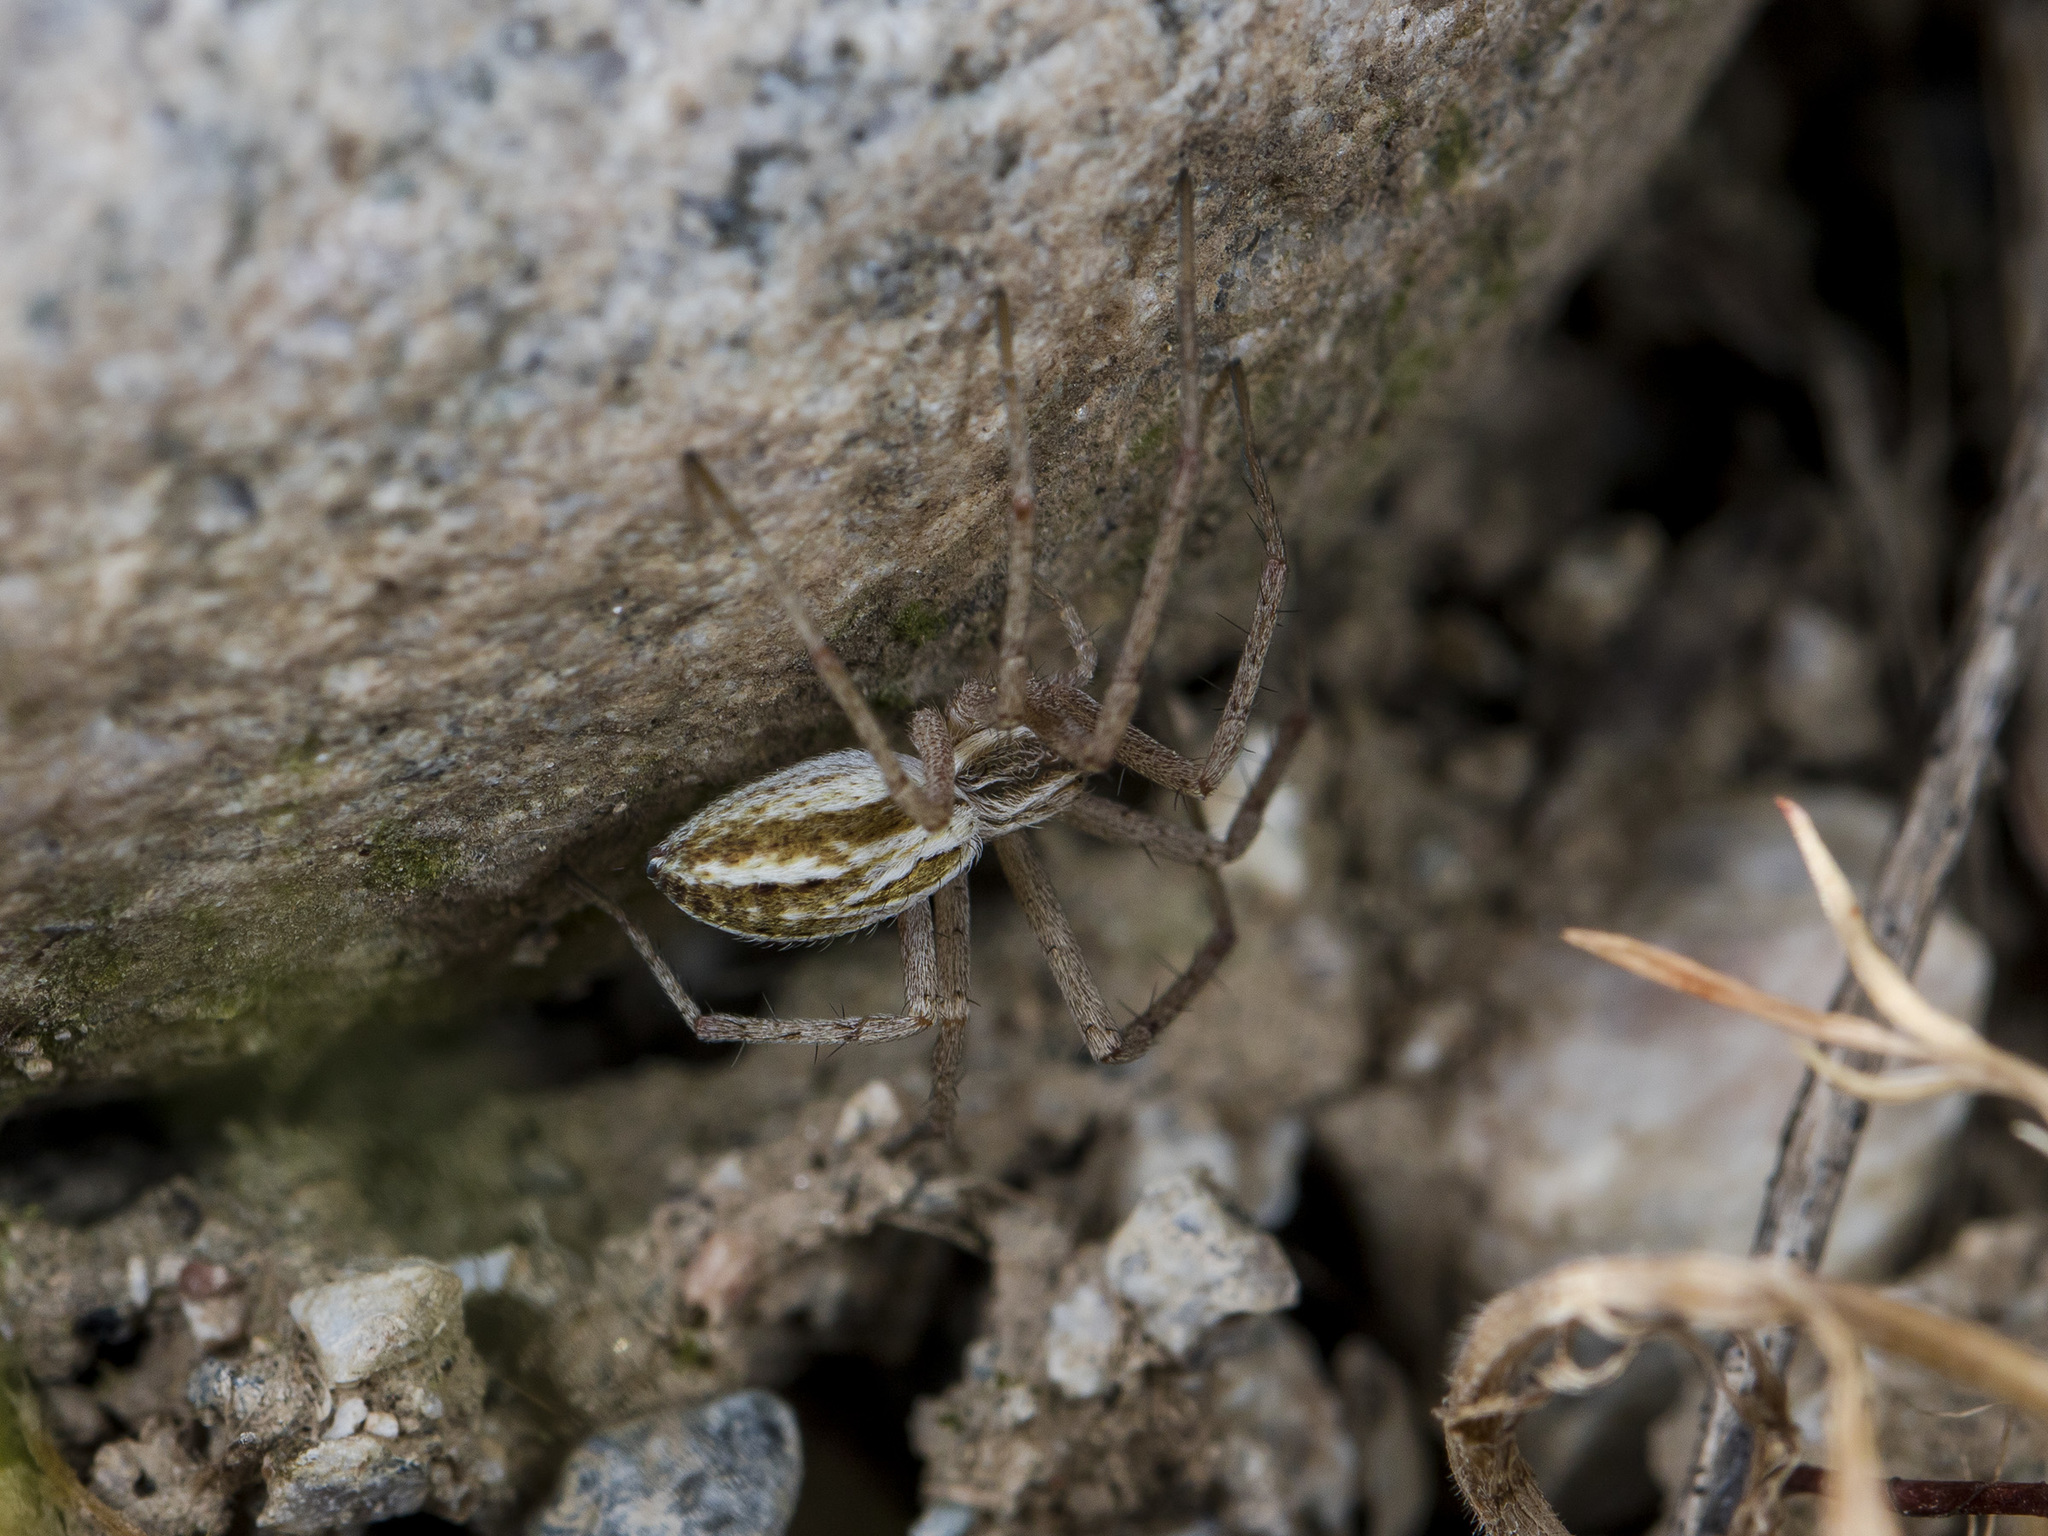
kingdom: Animalia
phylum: Arthropoda
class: Arachnida
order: Araneae
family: Philodromidae
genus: Thanatus
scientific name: Thanatus oblongiusculus
